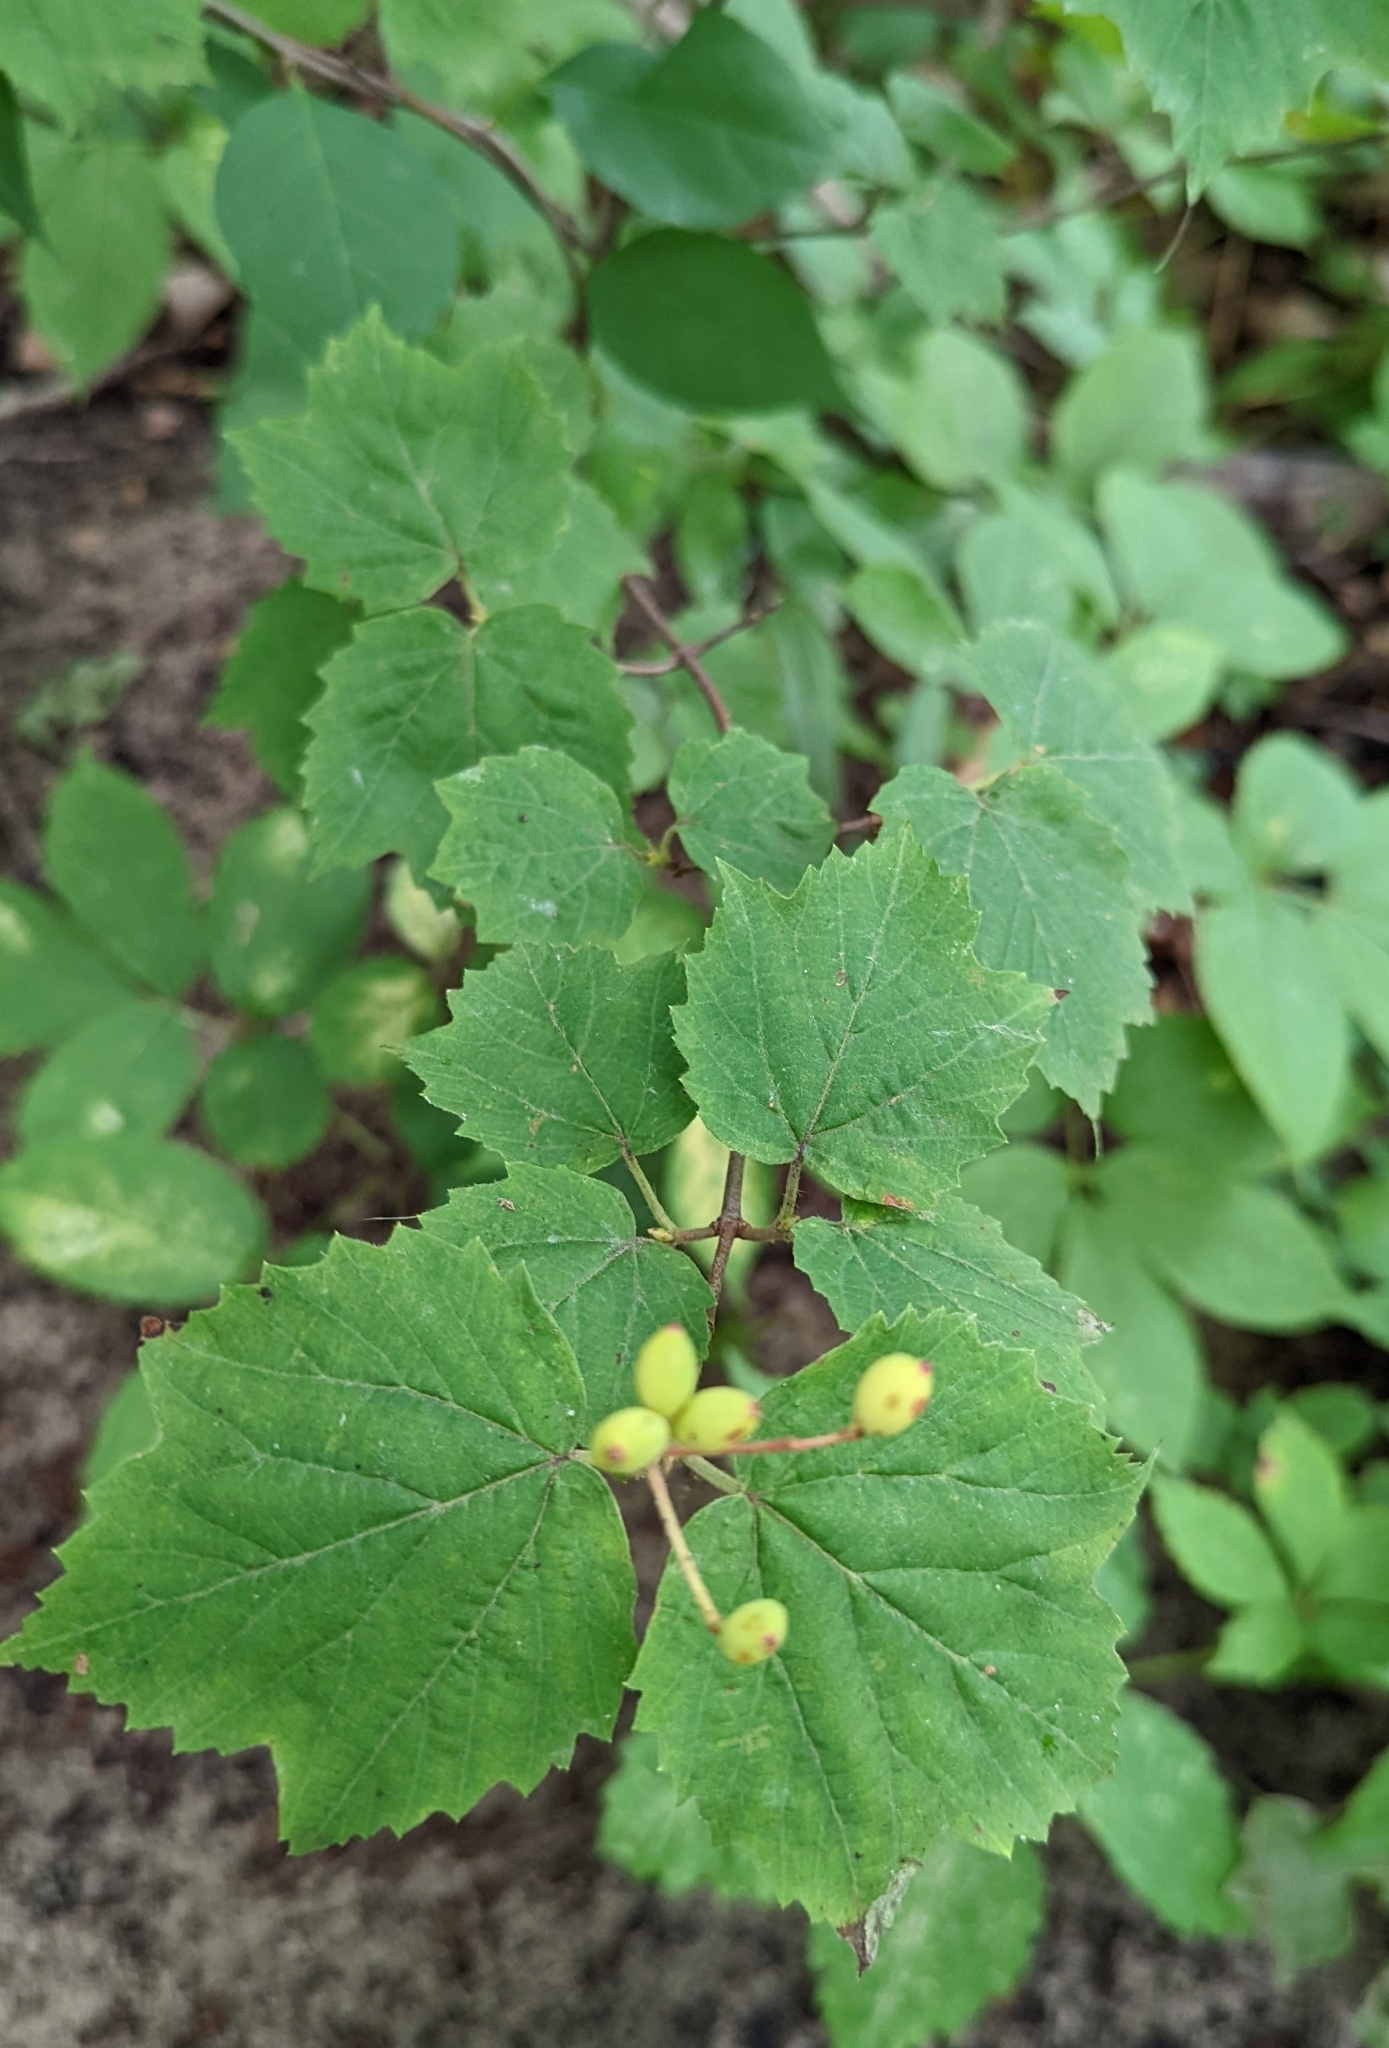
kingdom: Plantae
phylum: Tracheophyta
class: Magnoliopsida
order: Dipsacales
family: Viburnaceae
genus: Viburnum
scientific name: Viburnum acerifolium
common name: Dockmackie
